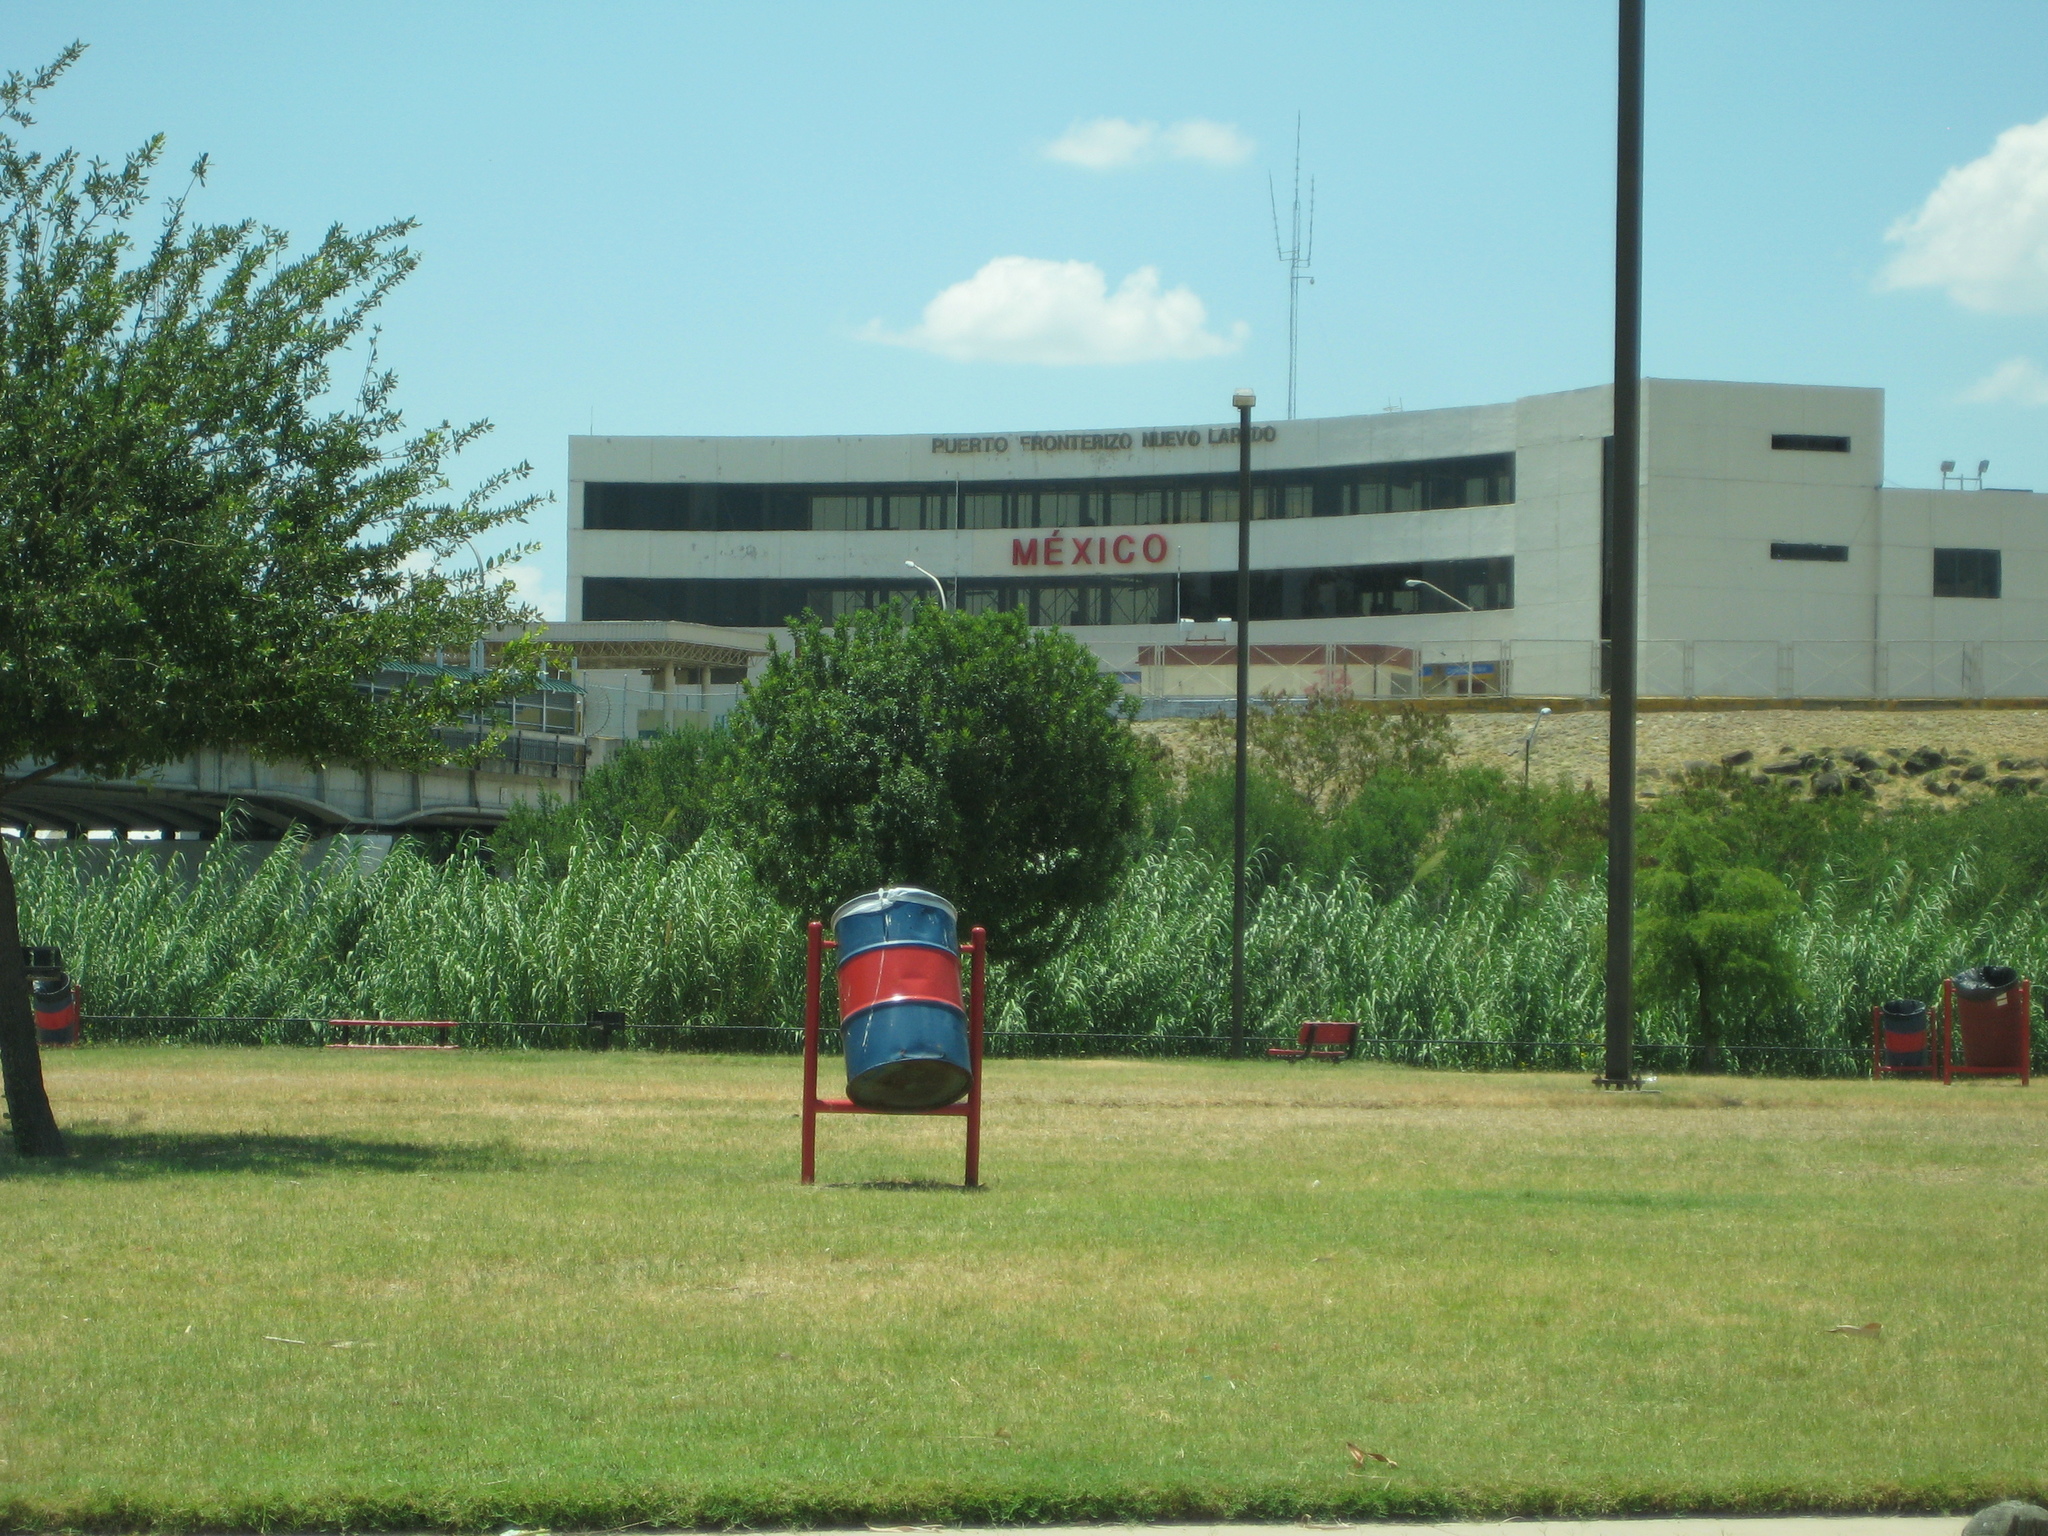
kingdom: Plantae
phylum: Tracheophyta
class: Liliopsida
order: Poales
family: Poaceae
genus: Arundo
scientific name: Arundo donax
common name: Giant reed
